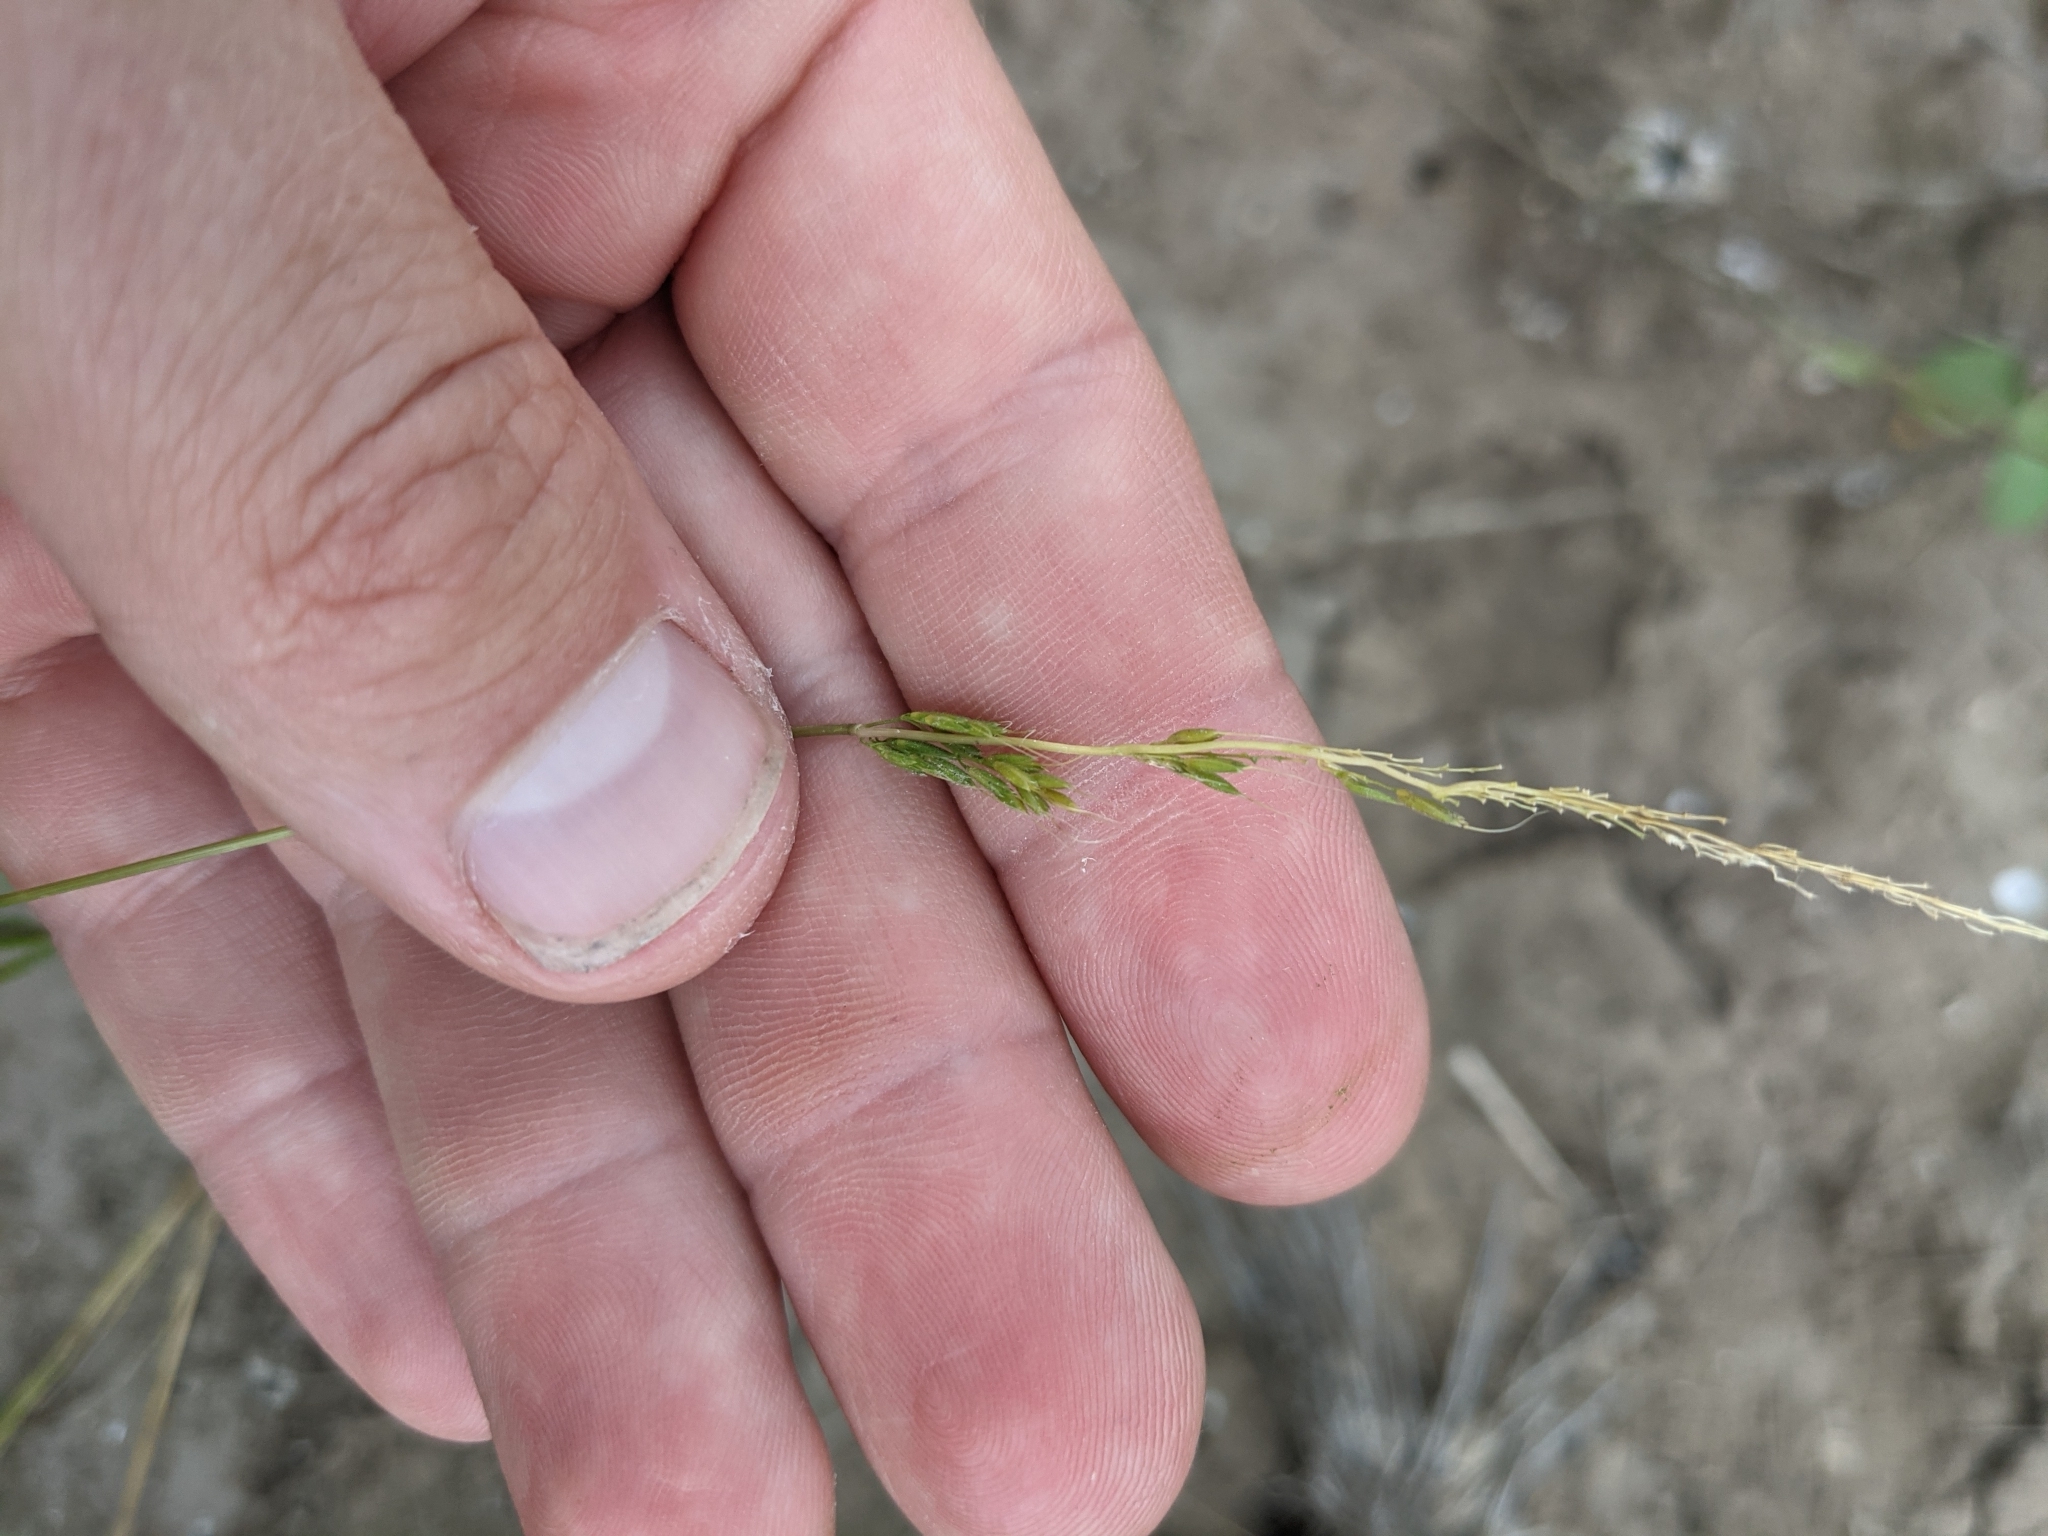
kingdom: Plantae
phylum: Tracheophyta
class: Liliopsida
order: Poales
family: Poaceae
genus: Limnodea
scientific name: Limnodea arkansana
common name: Ozark-grass
